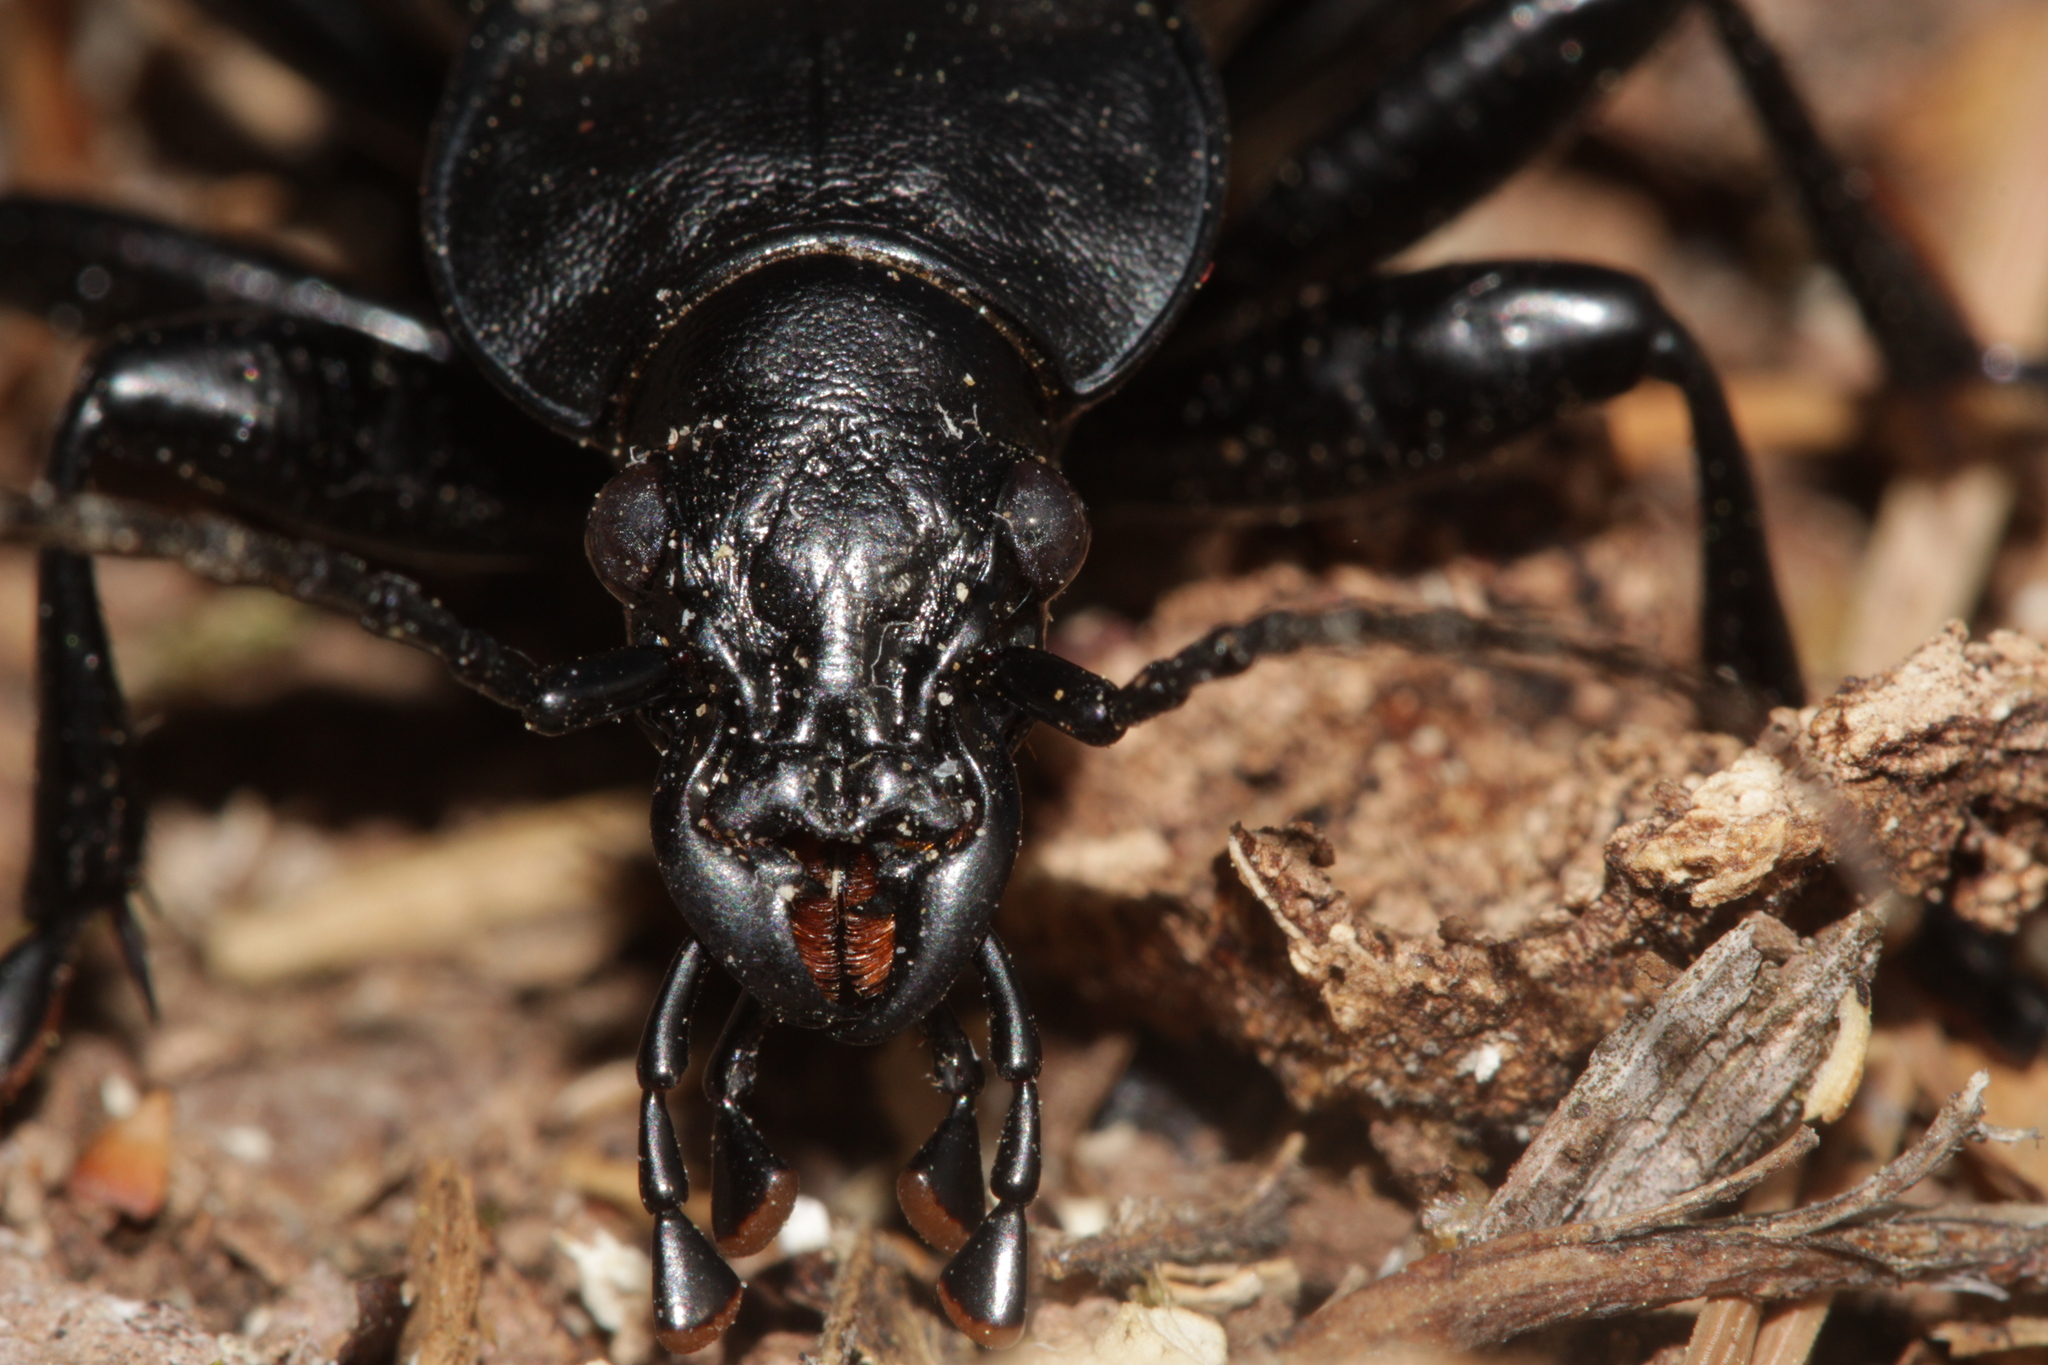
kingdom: Animalia
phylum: Arthropoda
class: Insecta
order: Coleoptera
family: Carabidae
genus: Carabus
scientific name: Carabus coriaceus
